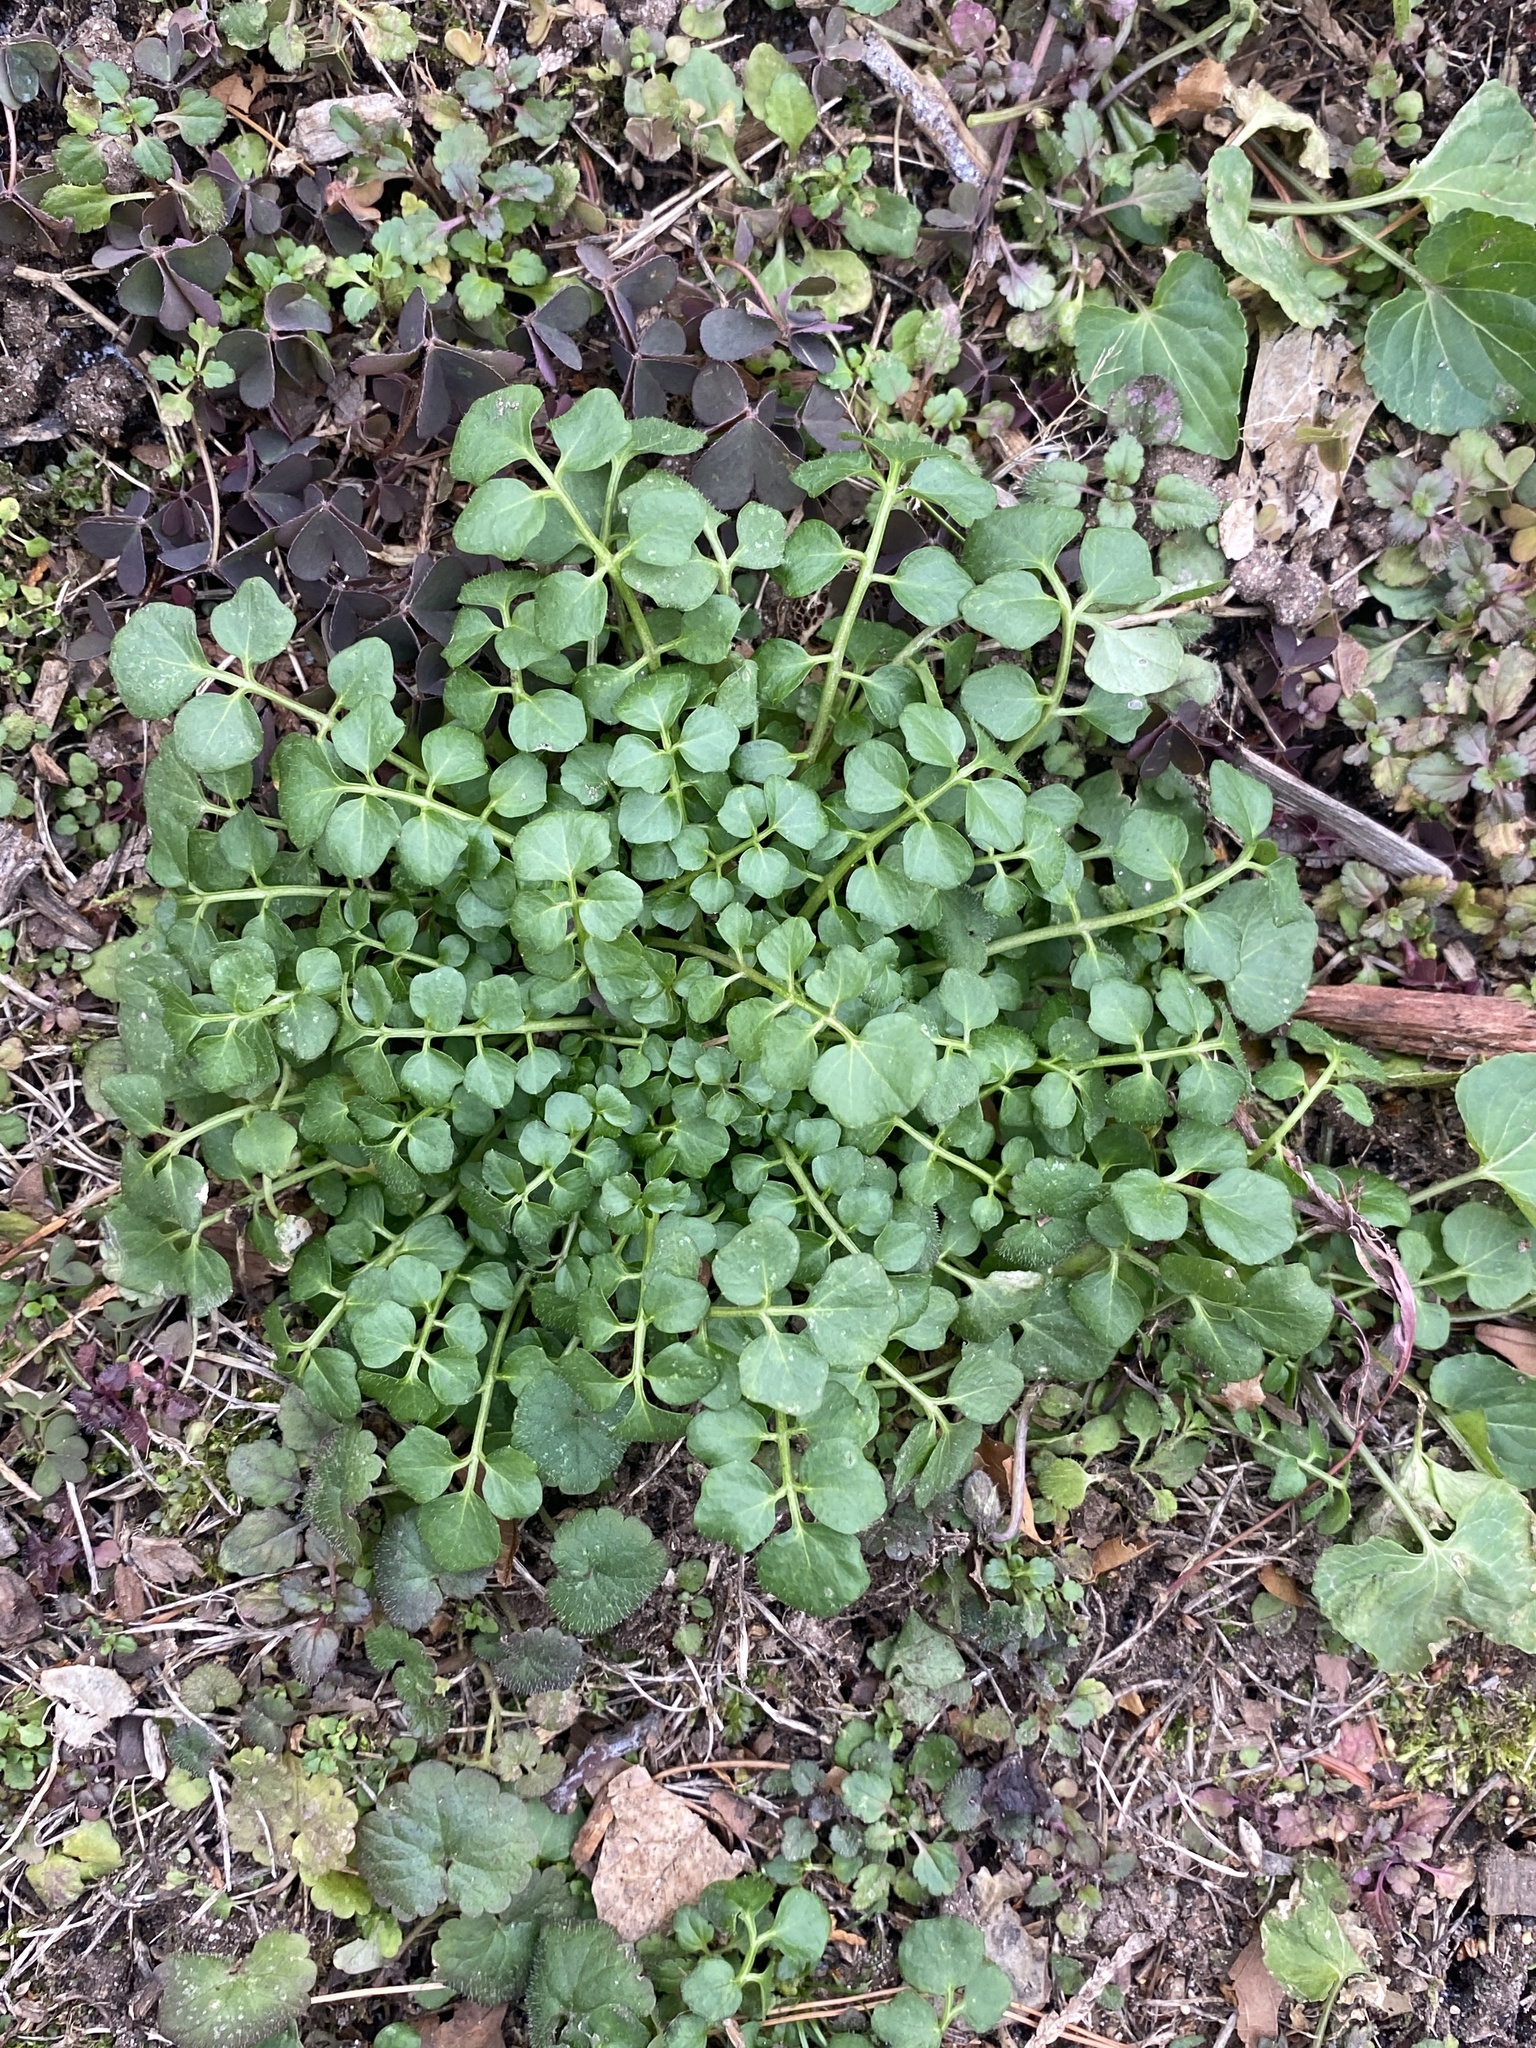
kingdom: Plantae
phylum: Tracheophyta
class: Magnoliopsida
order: Brassicales
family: Brassicaceae
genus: Cardamine
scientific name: Cardamine hirsuta
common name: Hairy bittercress
